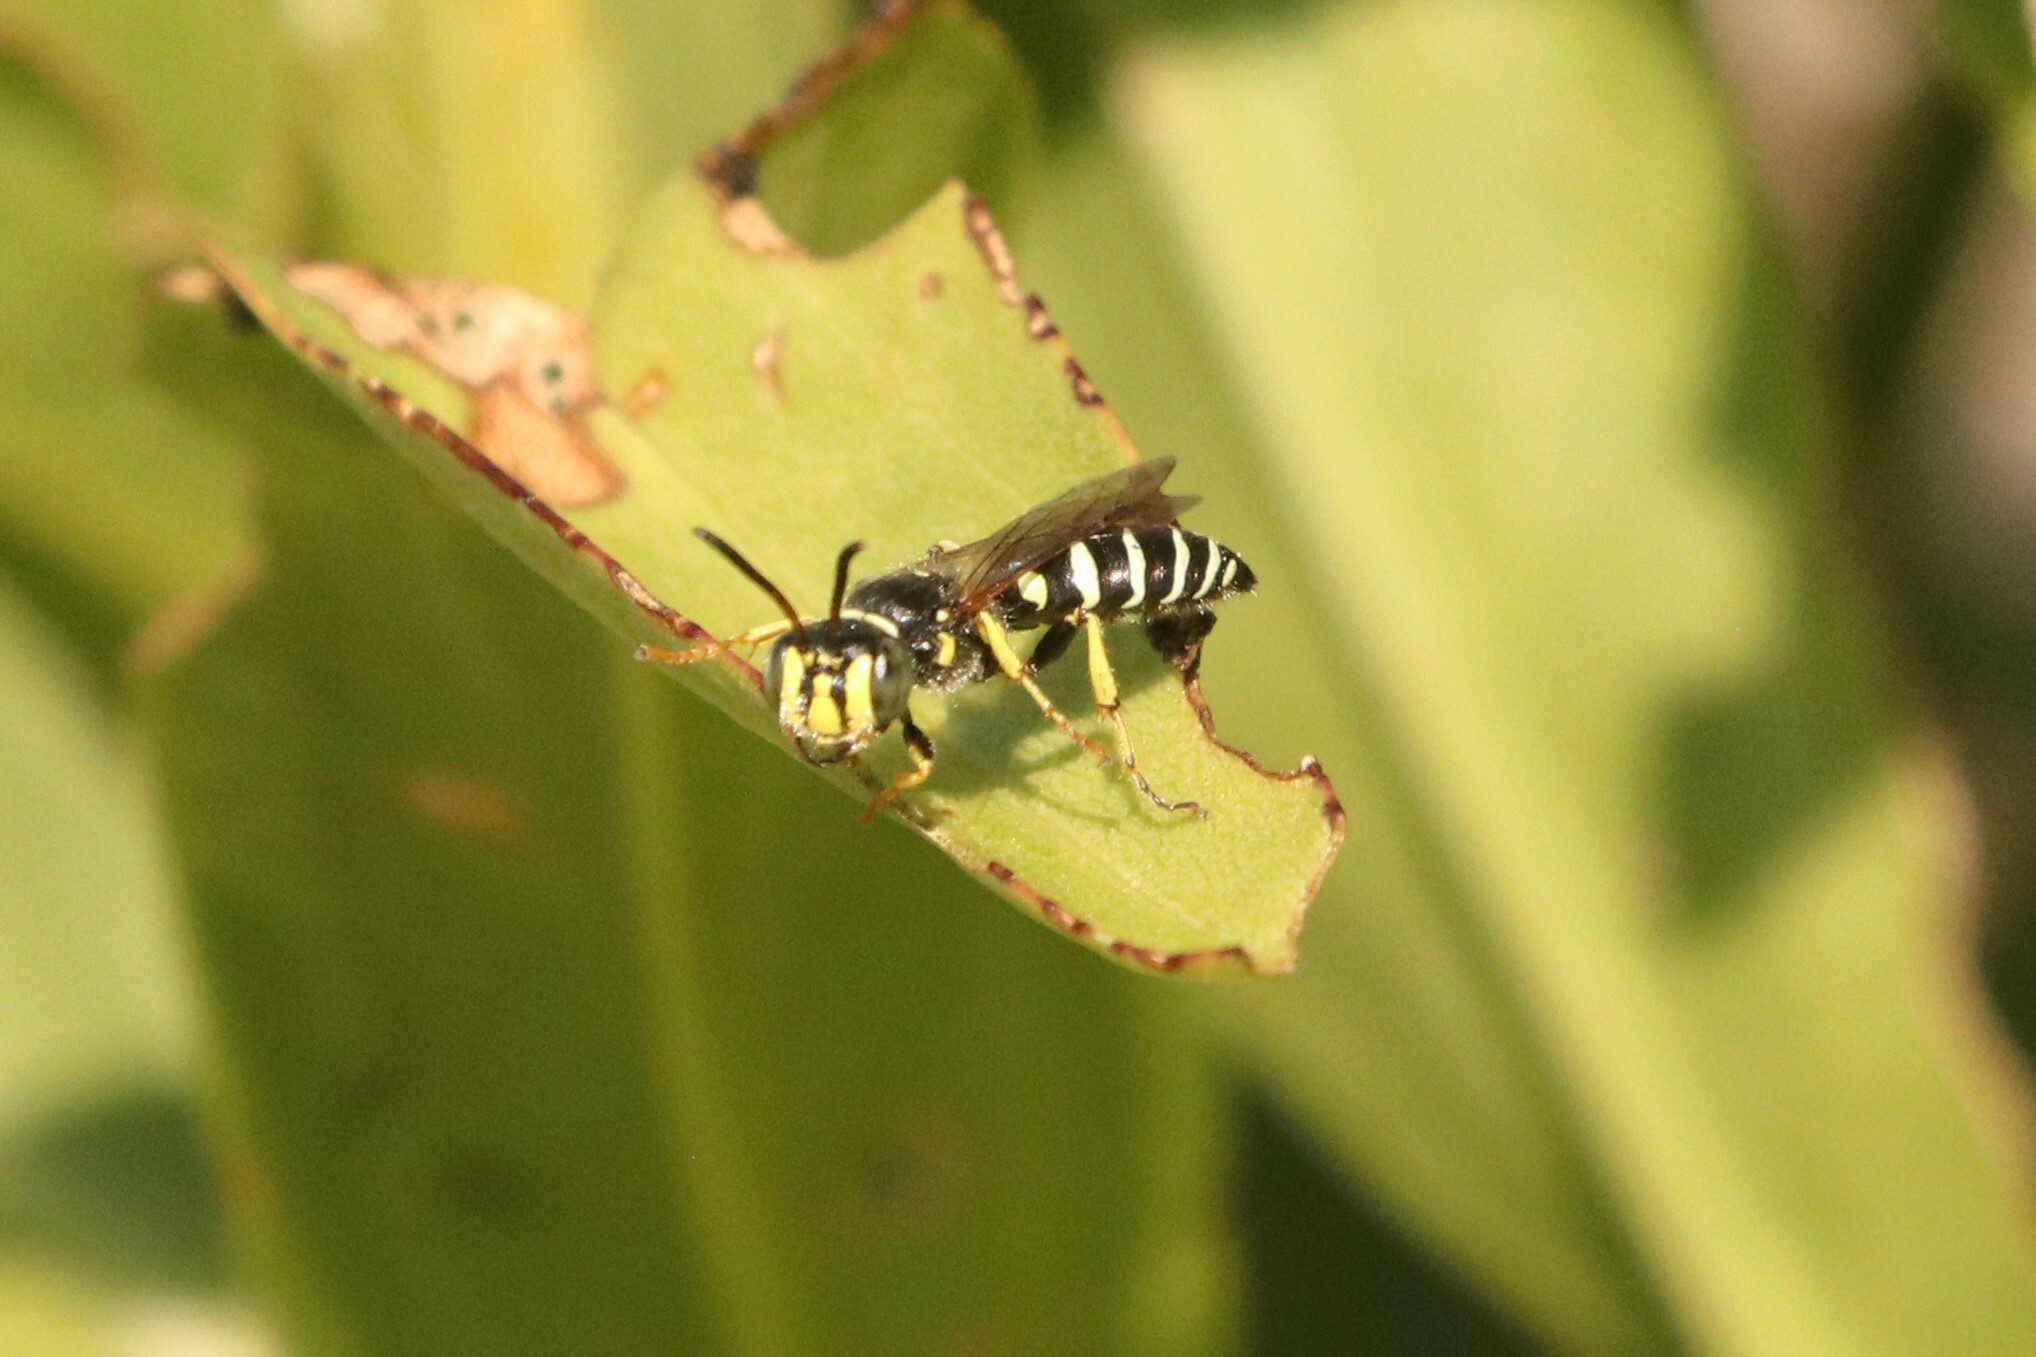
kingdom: Animalia
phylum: Arthropoda
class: Insecta
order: Hymenoptera
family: Crabronidae
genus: Aphilanthops
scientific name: Aphilanthops frigidus
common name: Queen ant kidnapper
